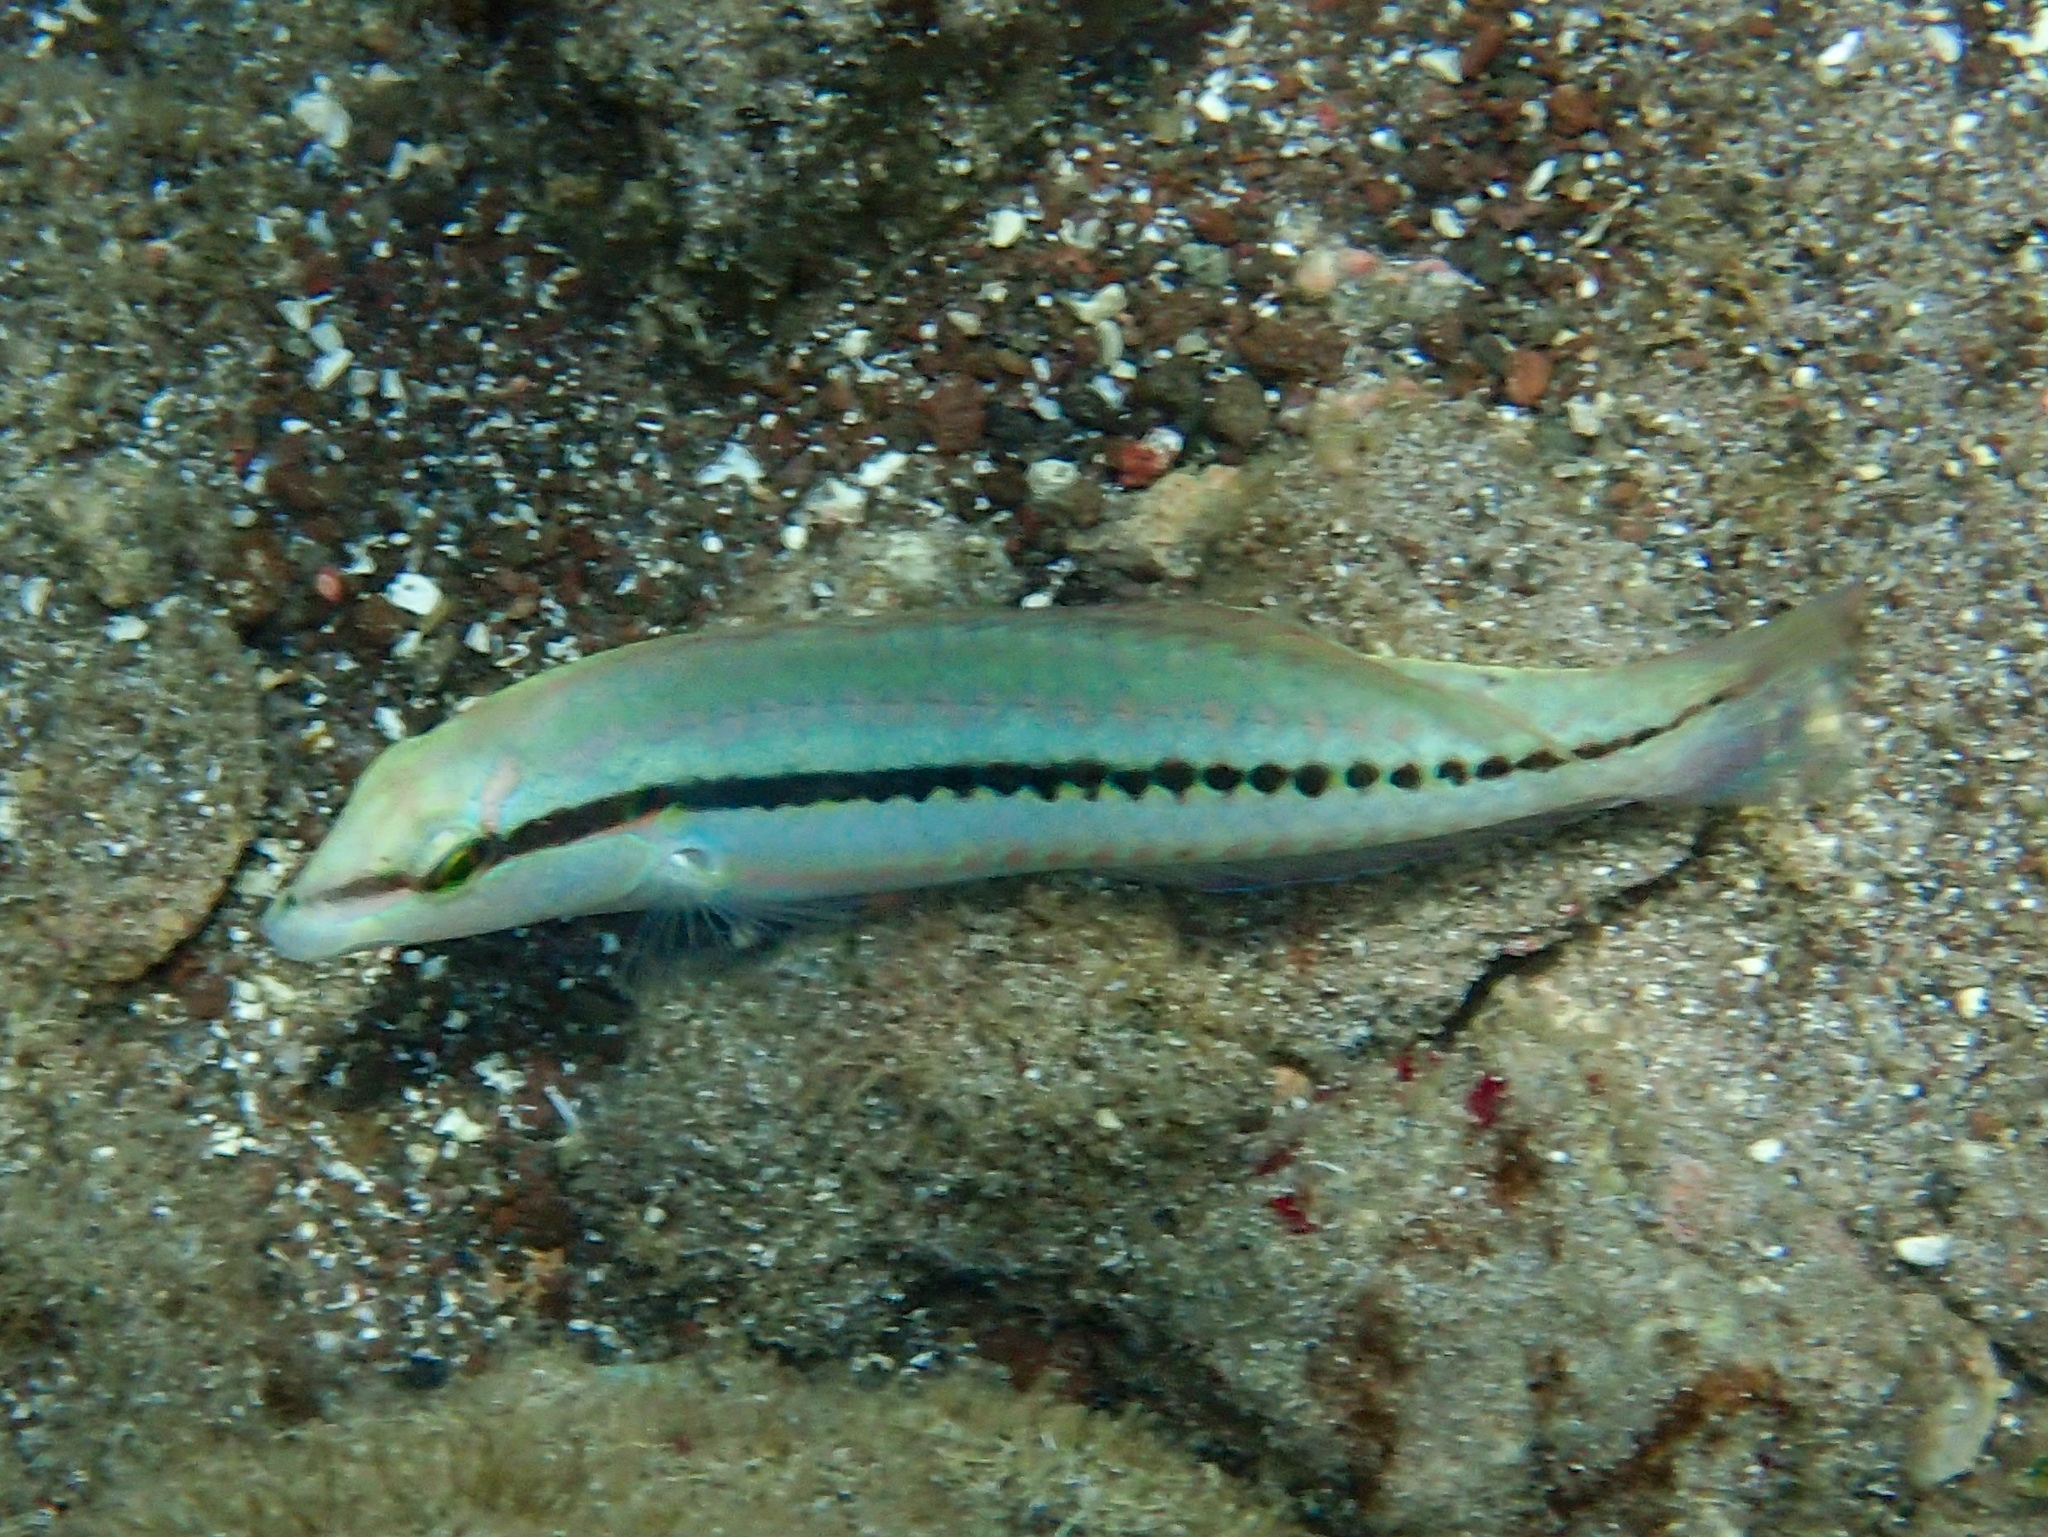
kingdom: Animalia
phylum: Chordata
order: Perciformes
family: Labridae
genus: Halichoeres
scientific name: Halichoeres bivittatus
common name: Slippery dick
